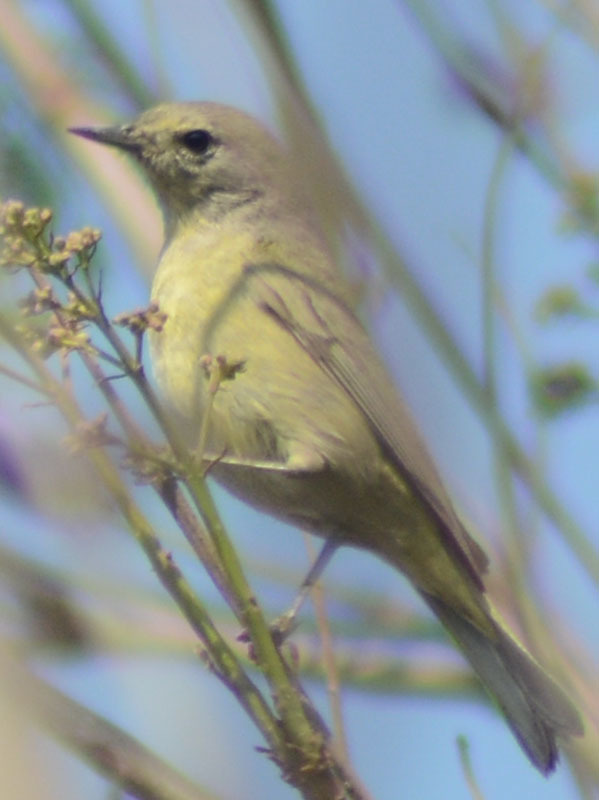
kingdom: Animalia
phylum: Chordata
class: Aves
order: Passeriformes
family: Parulidae
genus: Leiothlypis
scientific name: Leiothlypis celata
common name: Orange-crowned warbler
